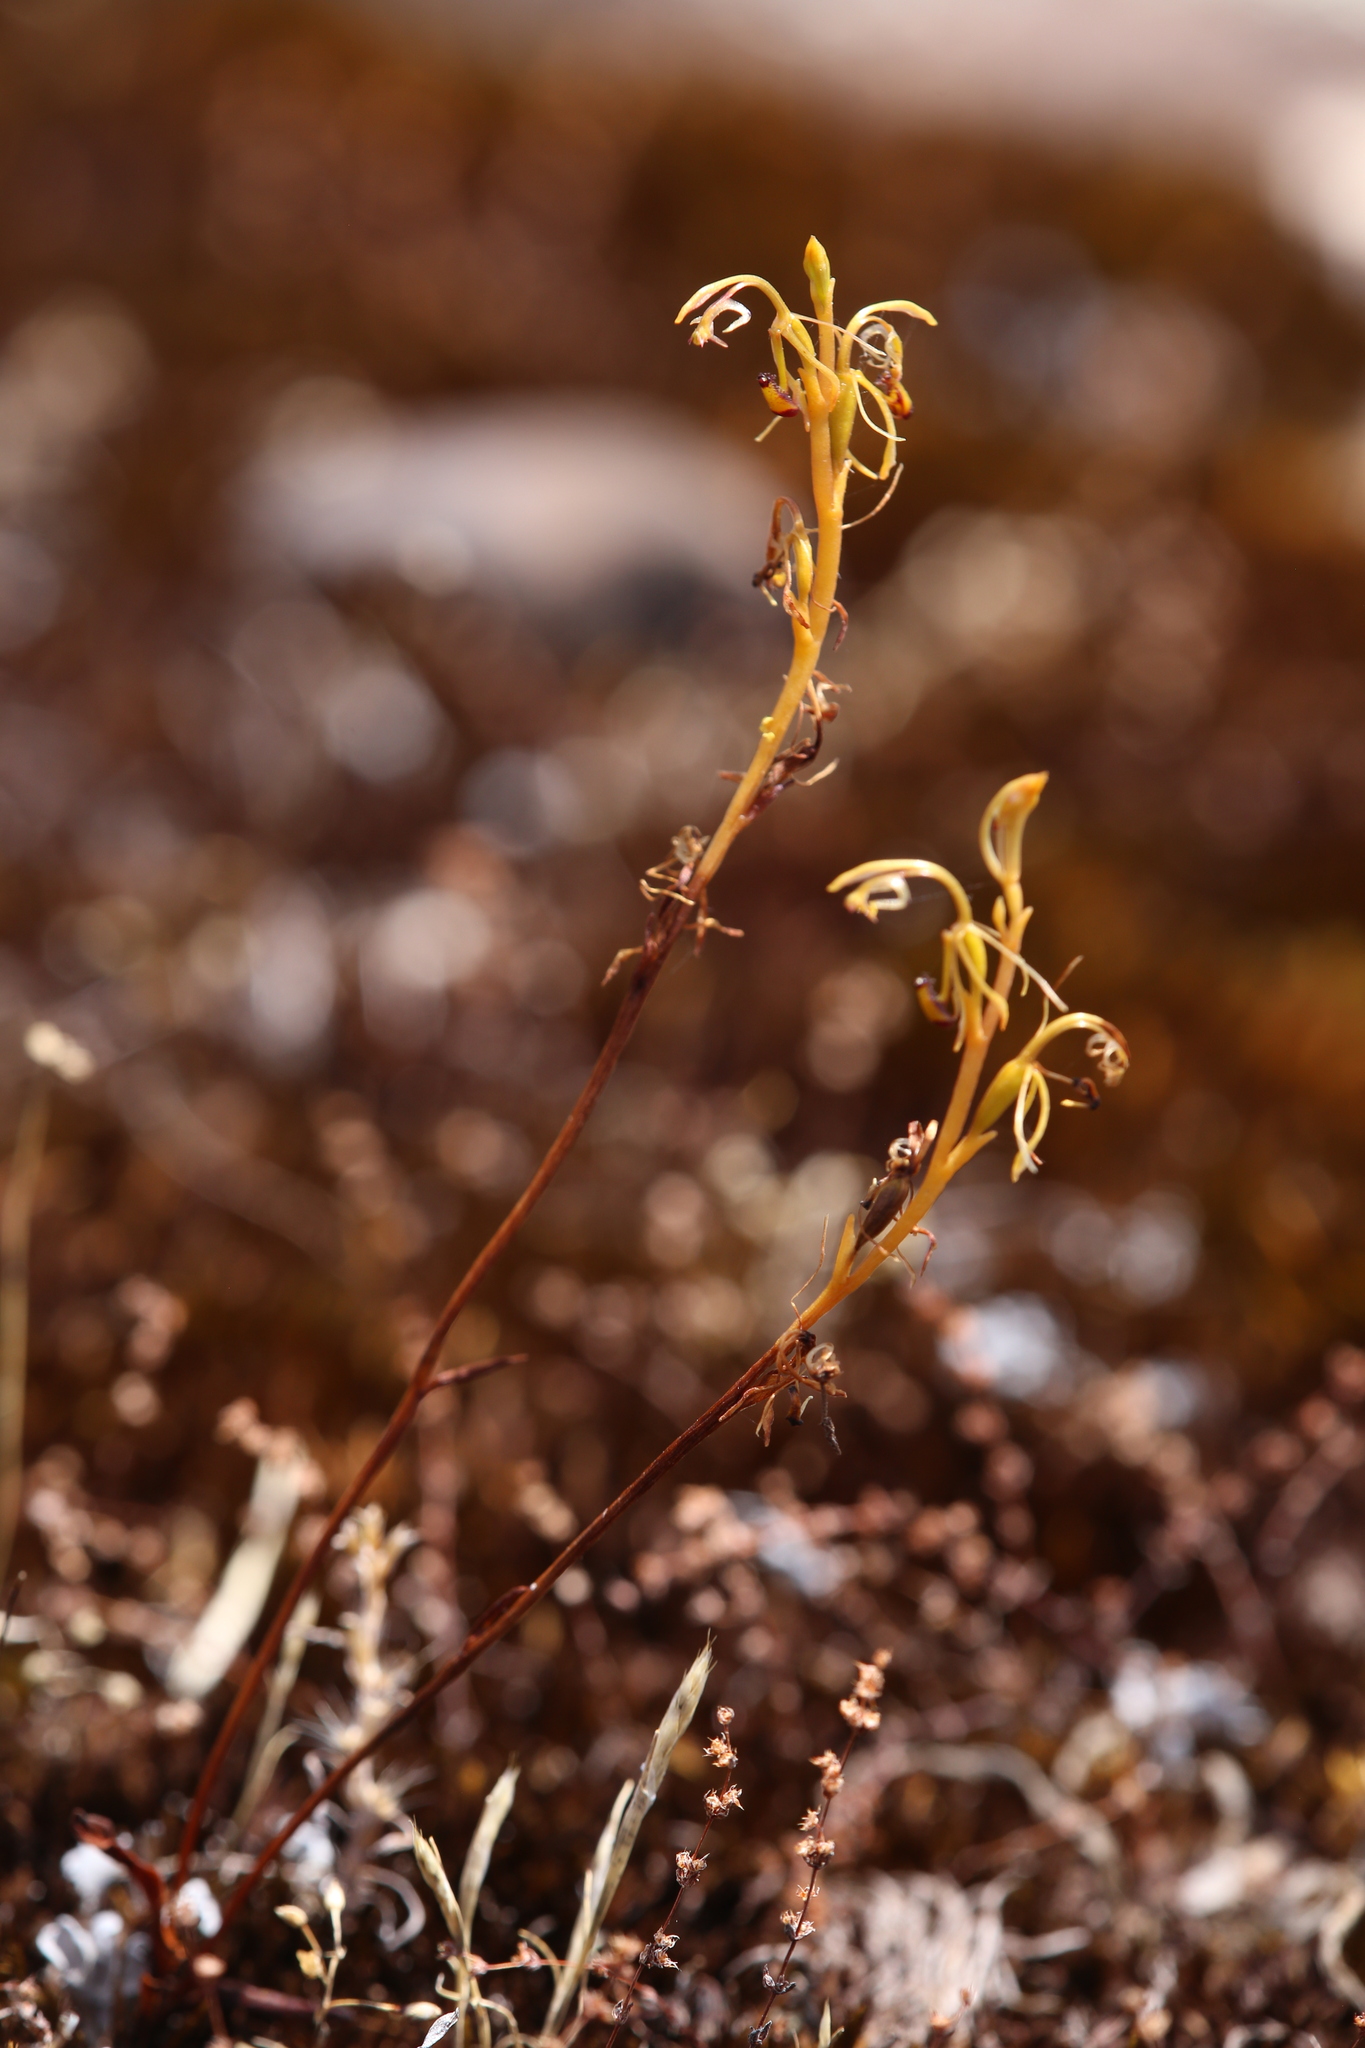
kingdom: Plantae
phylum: Tracheophyta
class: Liliopsida
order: Asparagales
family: Orchidaceae
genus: Spiculaea
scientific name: Spiculaea ciliata
